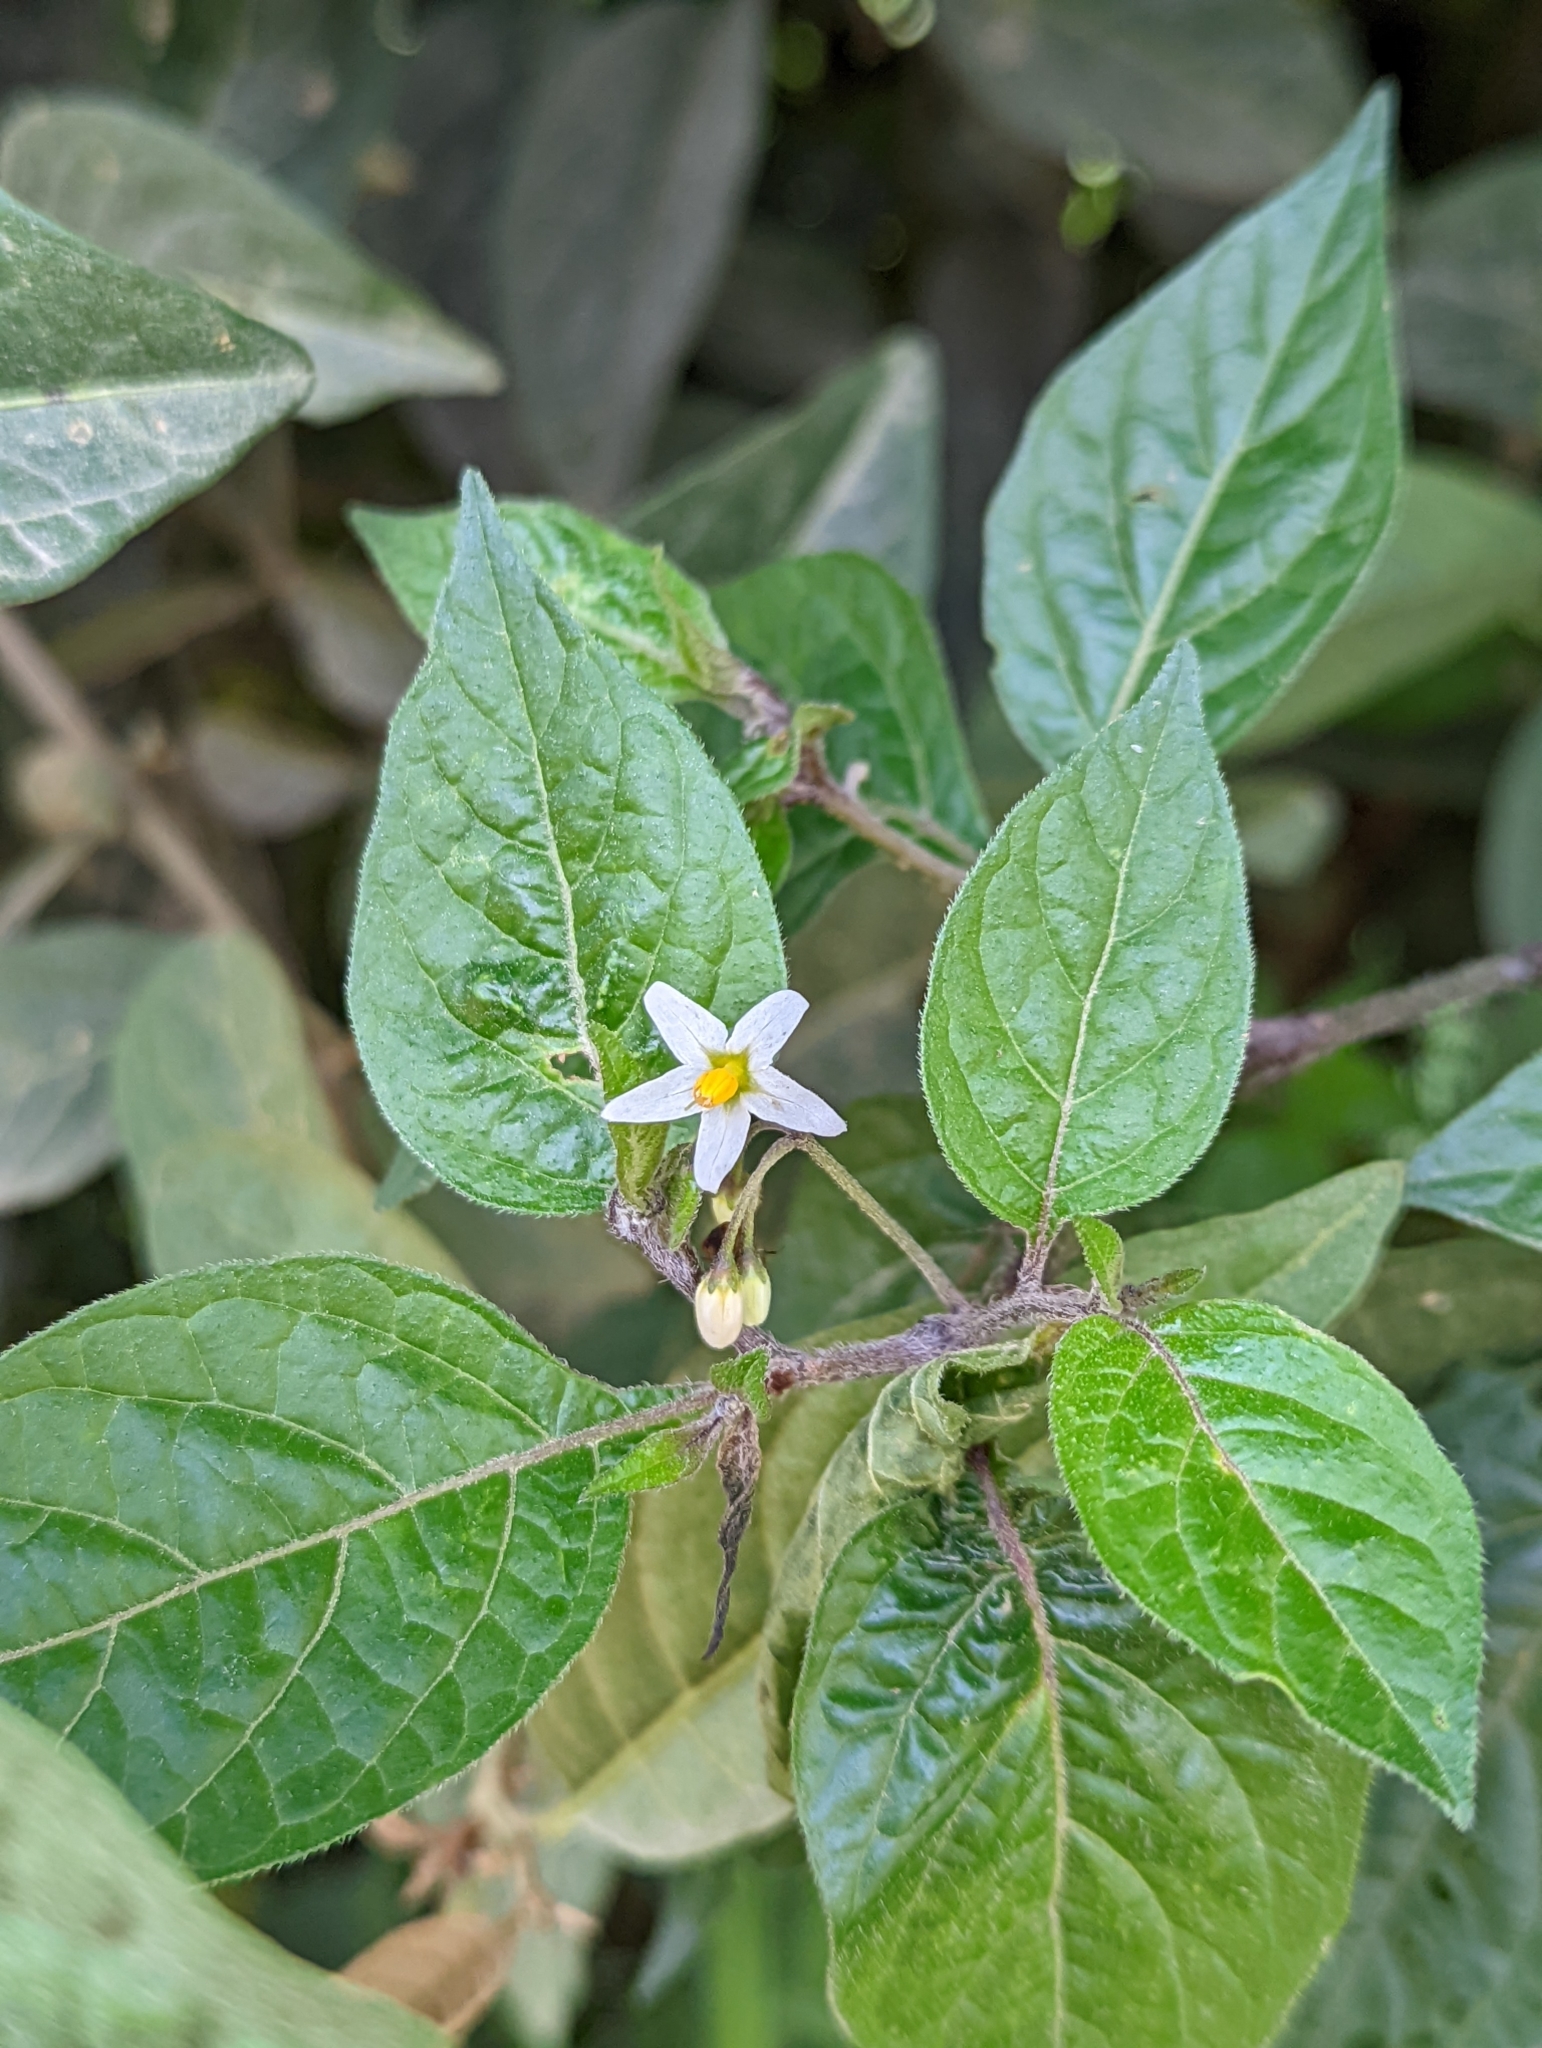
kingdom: Plantae
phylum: Tracheophyta
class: Magnoliopsida
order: Solanales
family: Solanaceae
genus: Solanum
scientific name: Solanum nigrescens
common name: Divine nightshade
